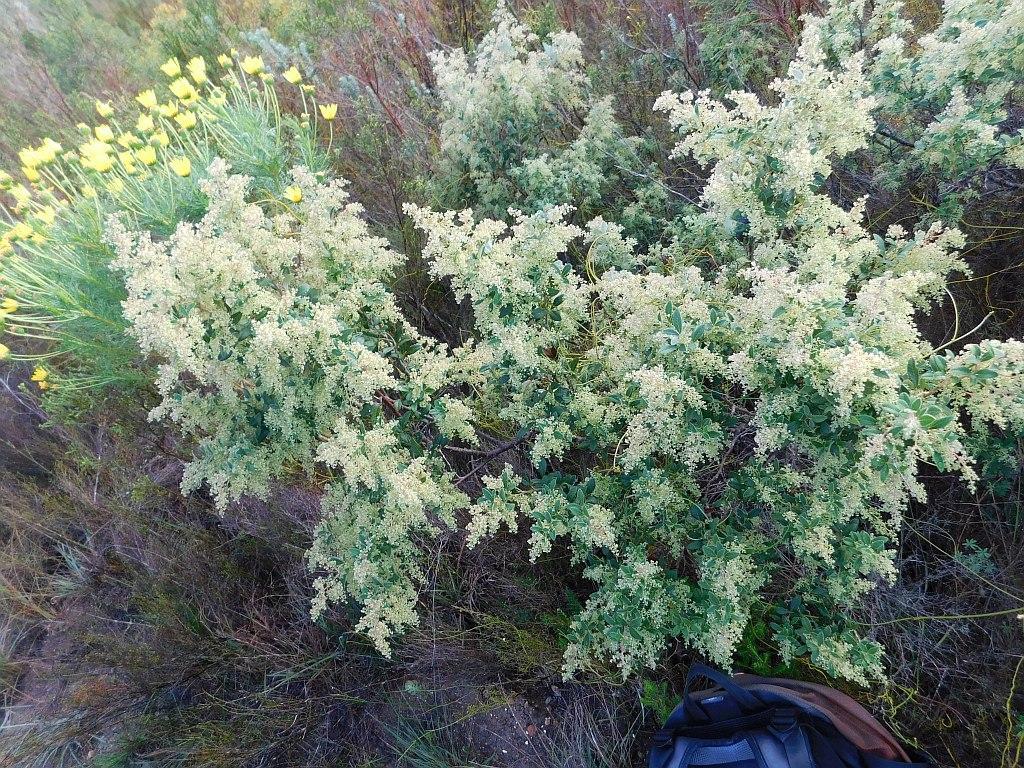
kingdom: Plantae
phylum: Tracheophyta
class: Magnoliopsida
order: Sapindales
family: Anacardiaceae
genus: Searsia
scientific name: Searsia tomentosa
